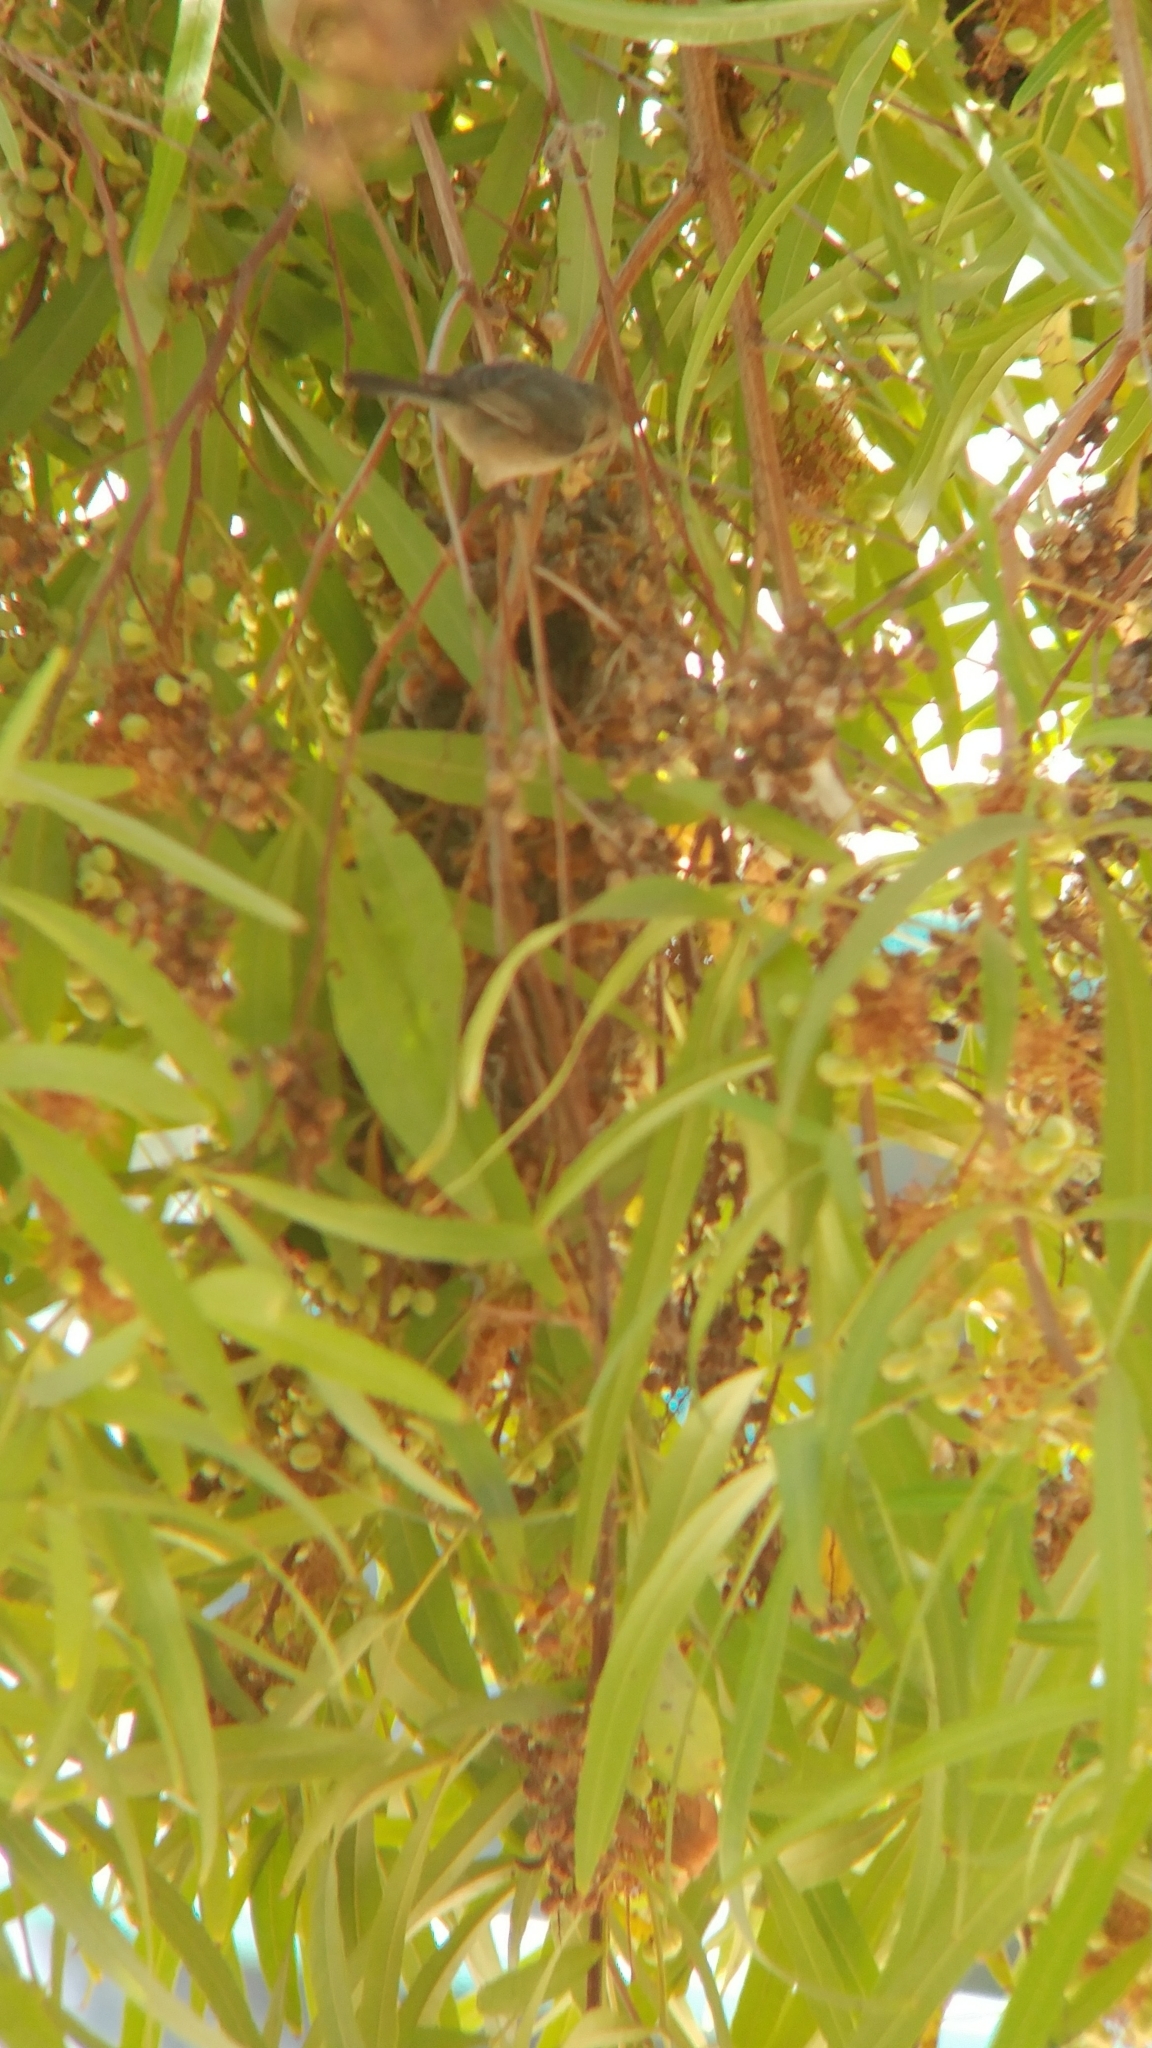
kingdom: Animalia
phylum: Chordata
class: Aves
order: Passeriformes
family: Aegithalidae
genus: Psaltriparus
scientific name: Psaltriparus minimus
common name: American bushtit
